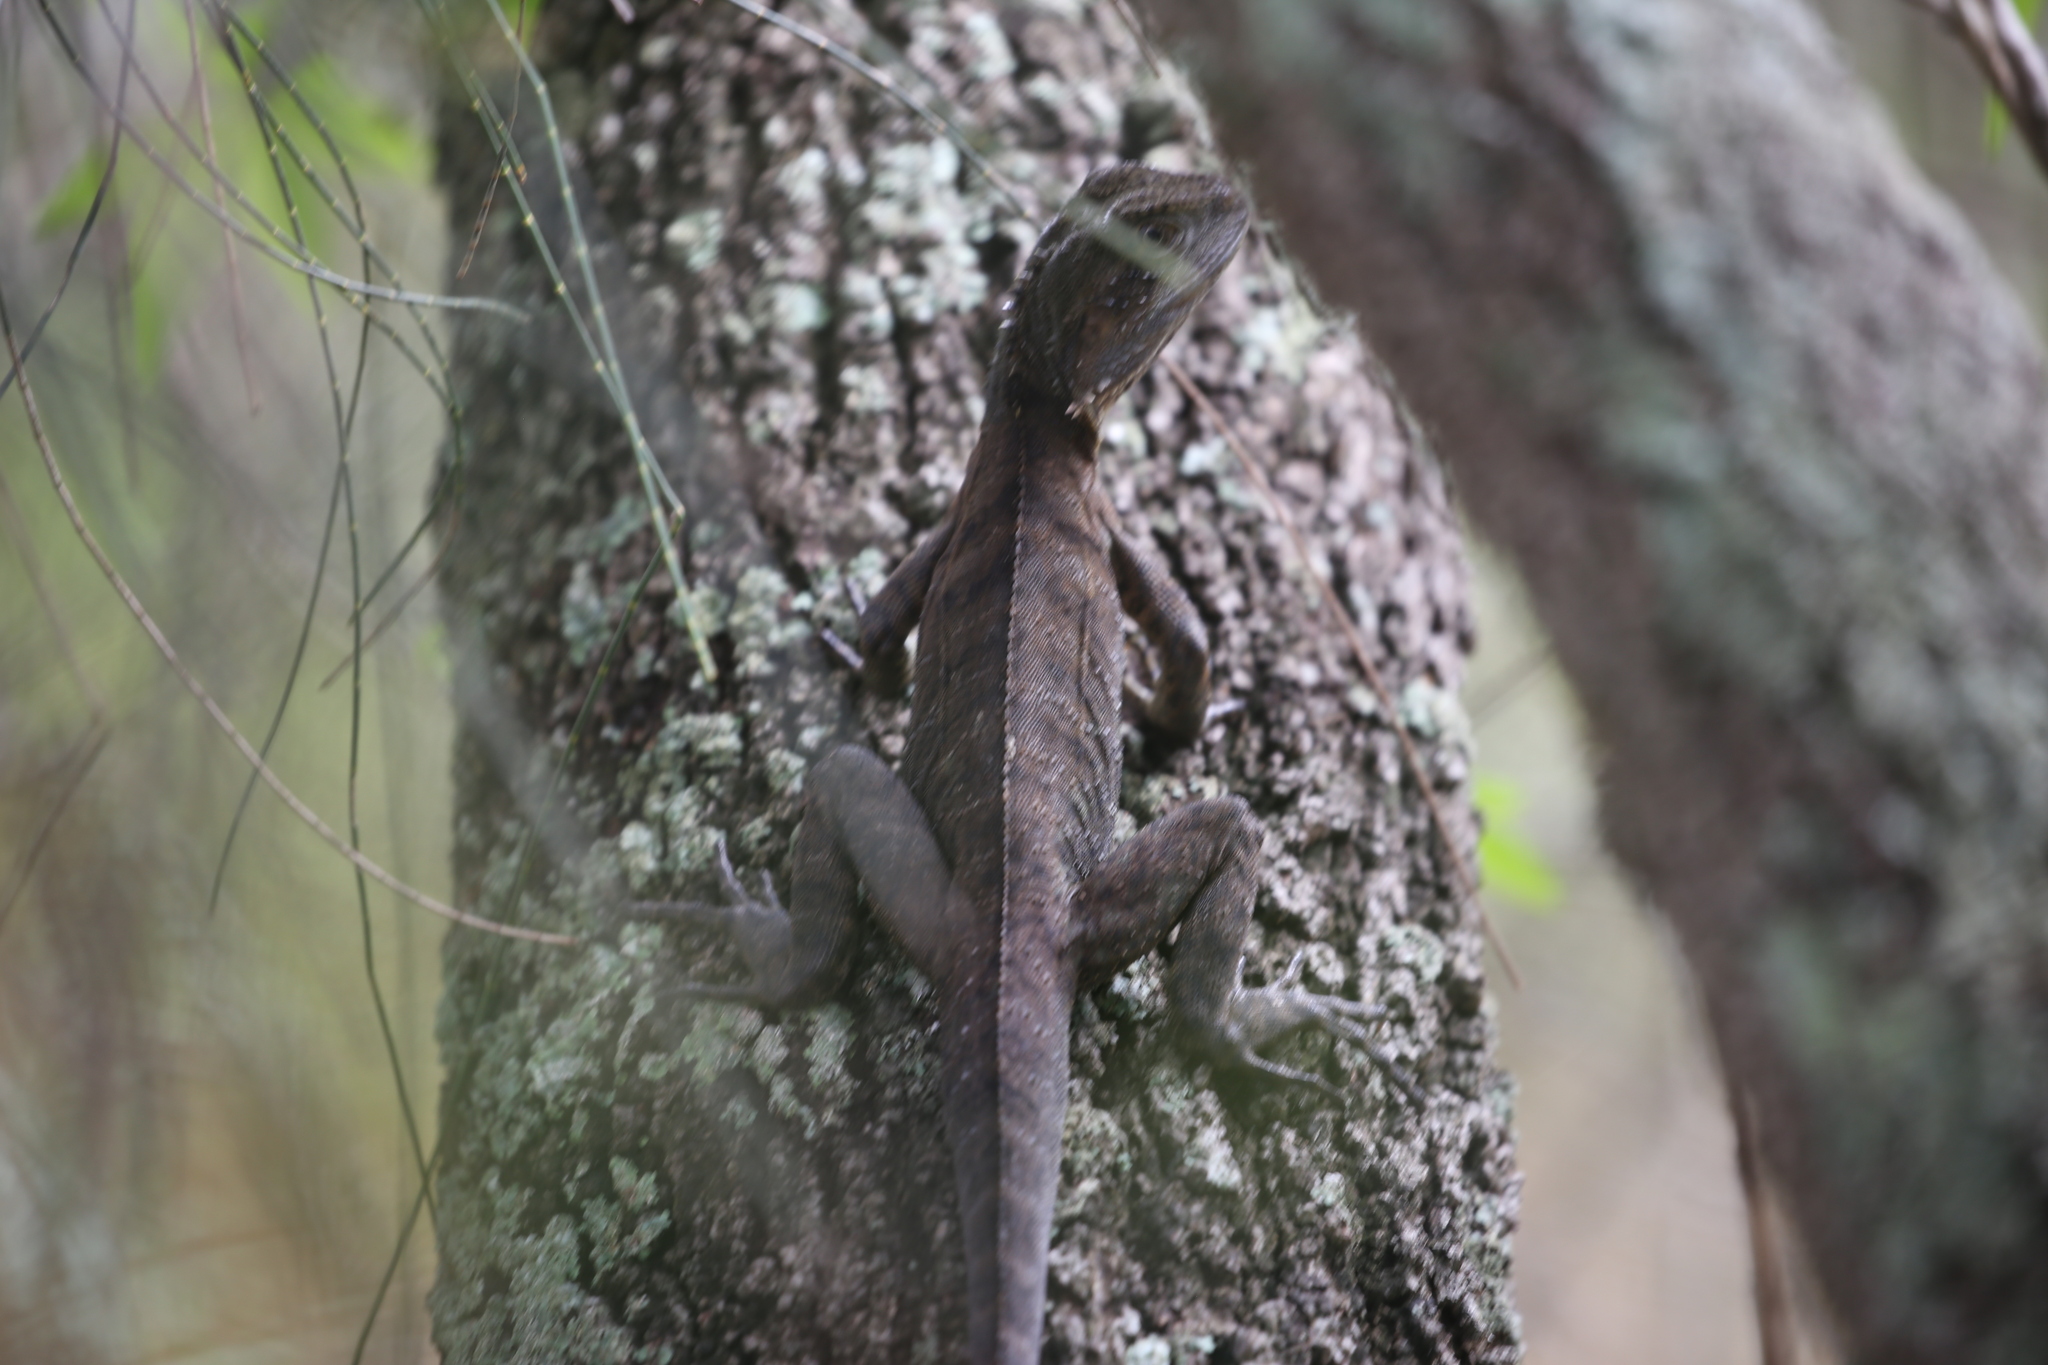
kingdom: Animalia
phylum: Chordata
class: Squamata
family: Agamidae
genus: Intellagama
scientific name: Intellagama lesueurii
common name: Eastern water dragon
